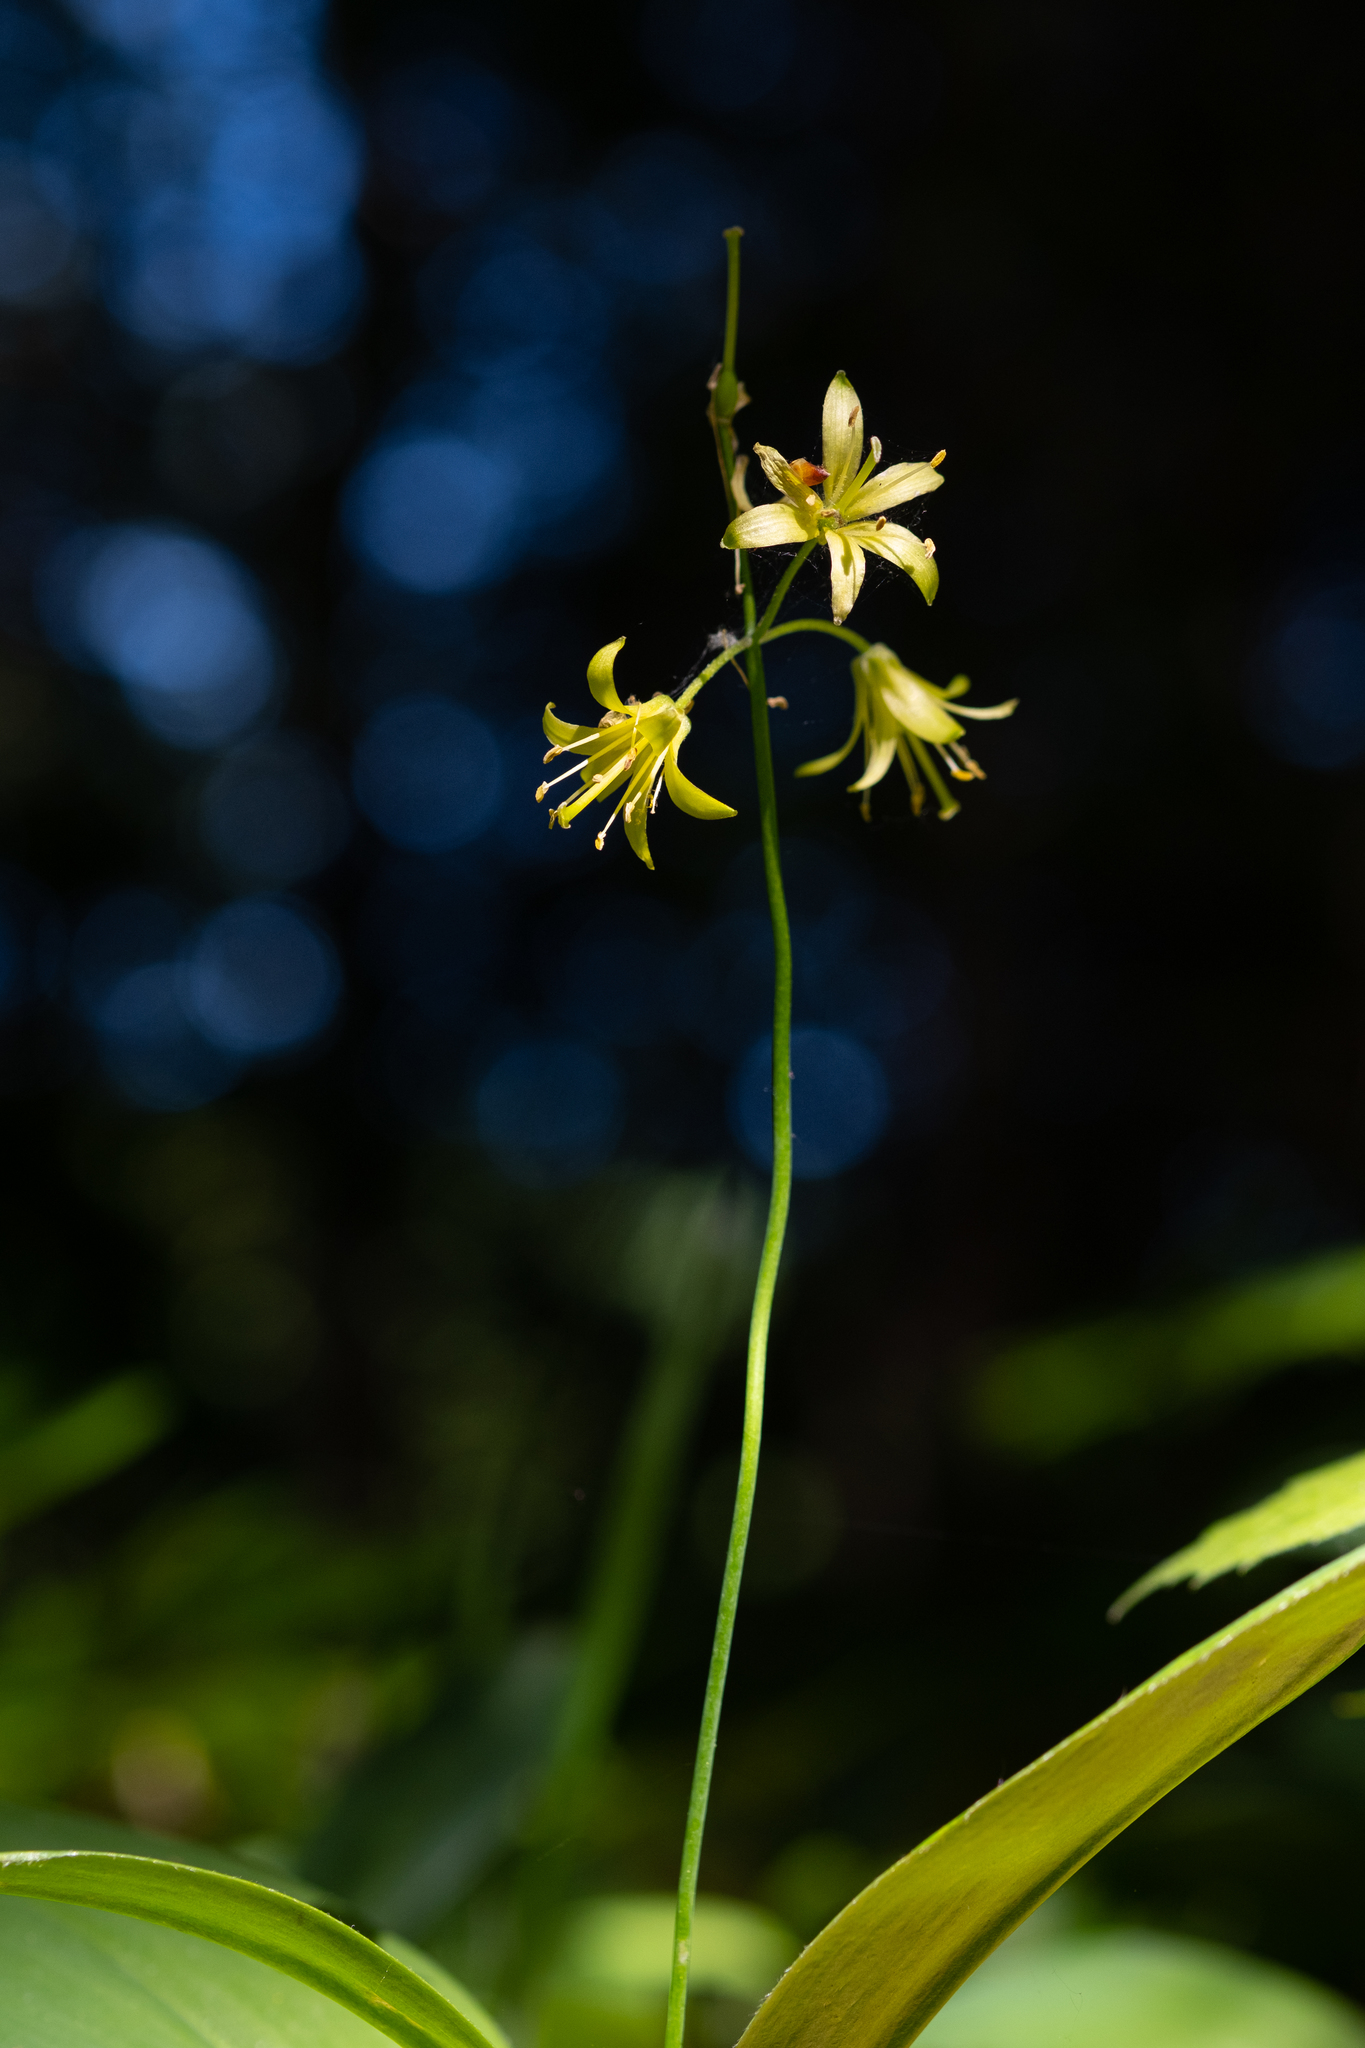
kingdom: Plantae
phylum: Tracheophyta
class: Liliopsida
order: Liliales
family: Liliaceae
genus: Clintonia
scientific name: Clintonia borealis
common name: Yellow clintonia
